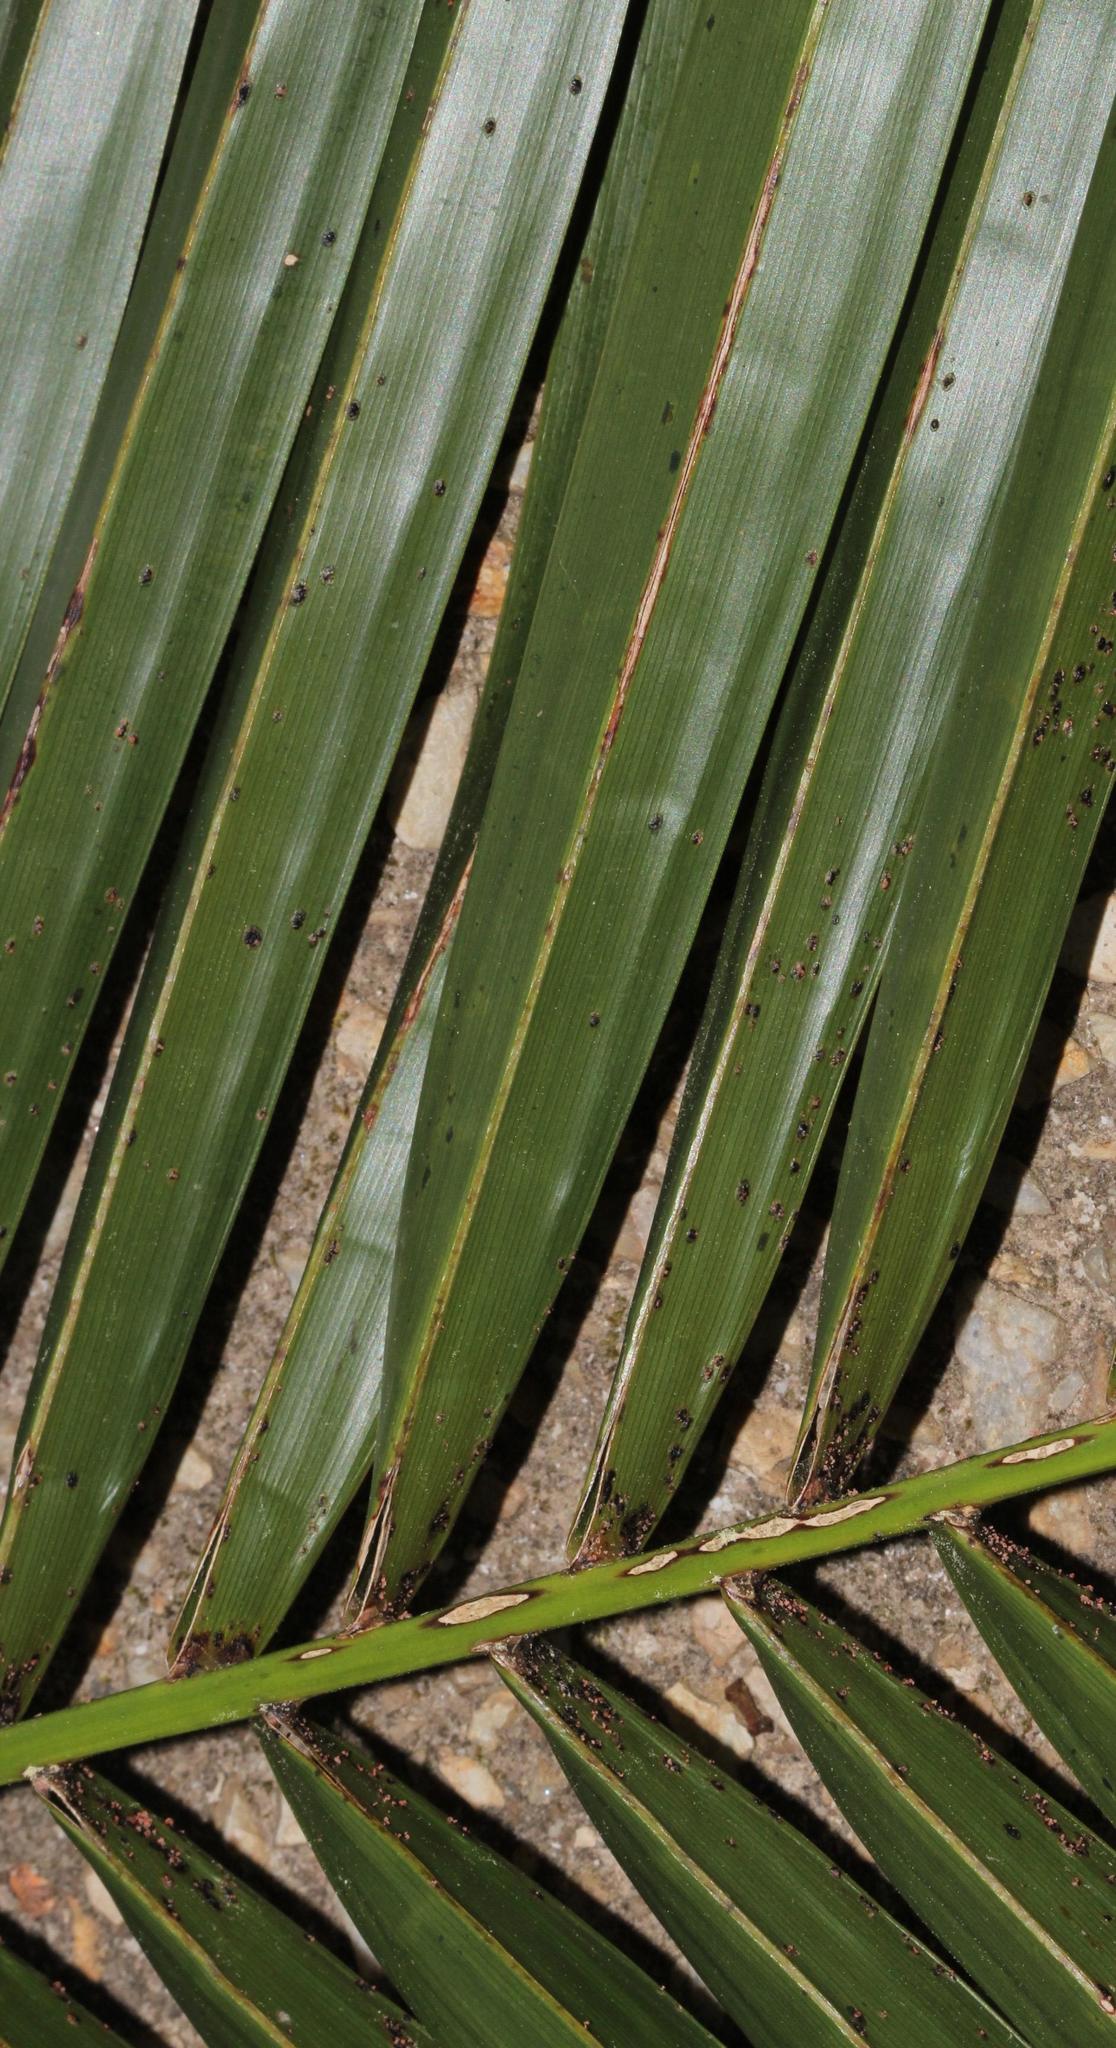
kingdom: Plantae
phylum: Tracheophyta
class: Liliopsida
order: Arecales
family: Arecaceae
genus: Phoenix
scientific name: Phoenix canariensis
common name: Canary island date palm
